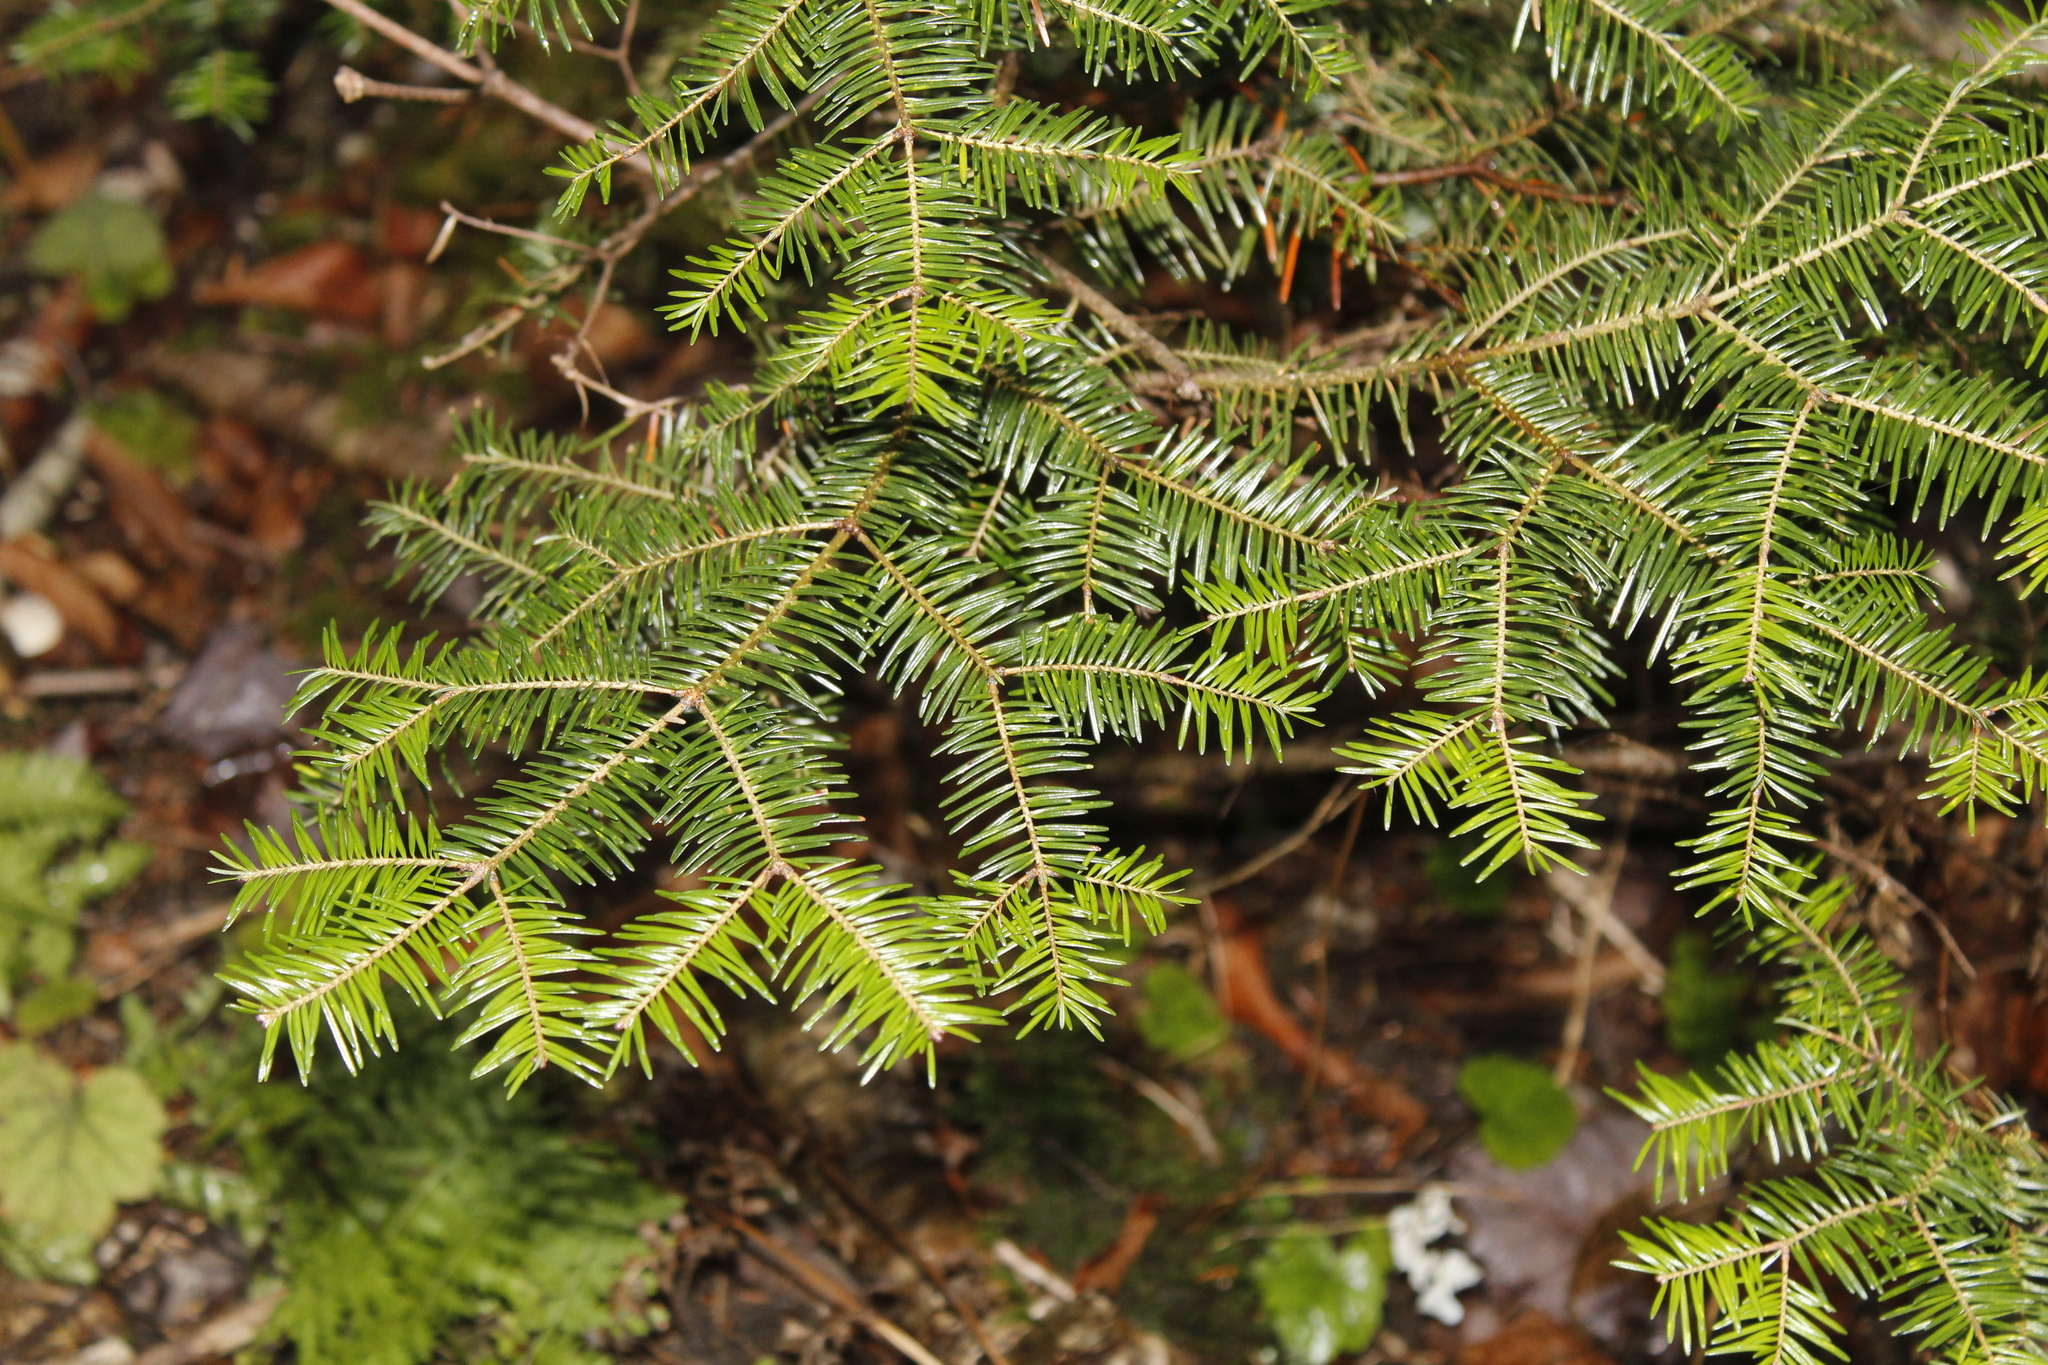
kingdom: Plantae
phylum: Tracheophyta
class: Pinopsida
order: Pinales
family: Pinaceae
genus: Abies
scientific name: Abies balsamea
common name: Balsam fir
